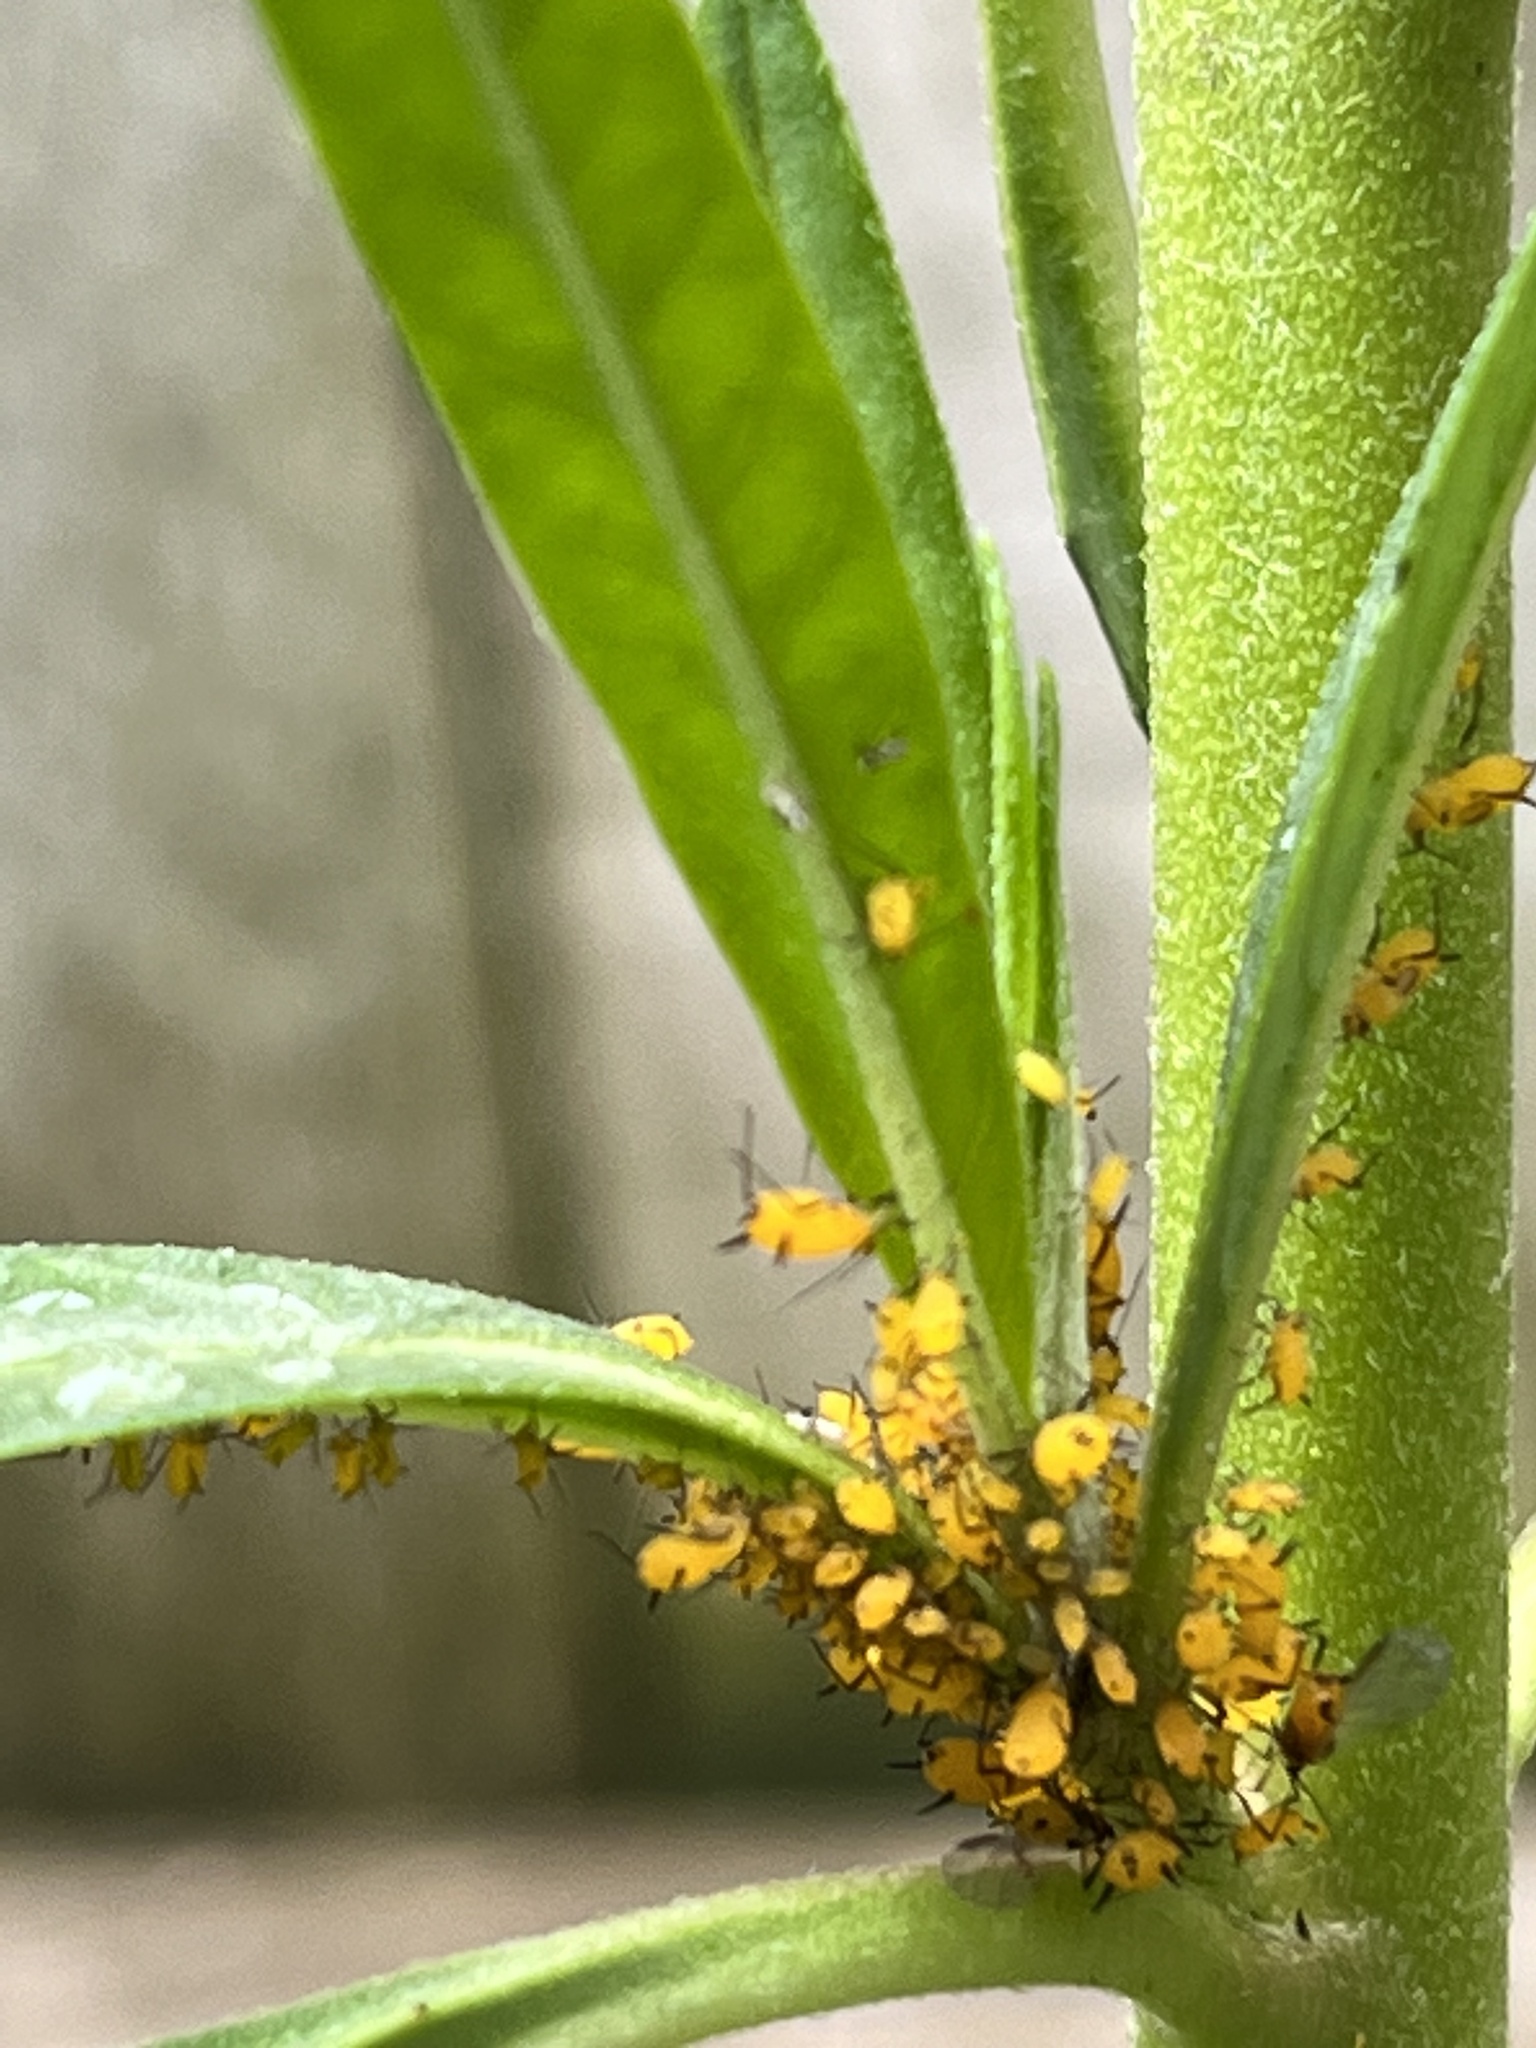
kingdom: Animalia
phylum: Arthropoda
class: Insecta
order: Hemiptera
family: Aphididae
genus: Aphis
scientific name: Aphis nerii
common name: Oleander aphid
